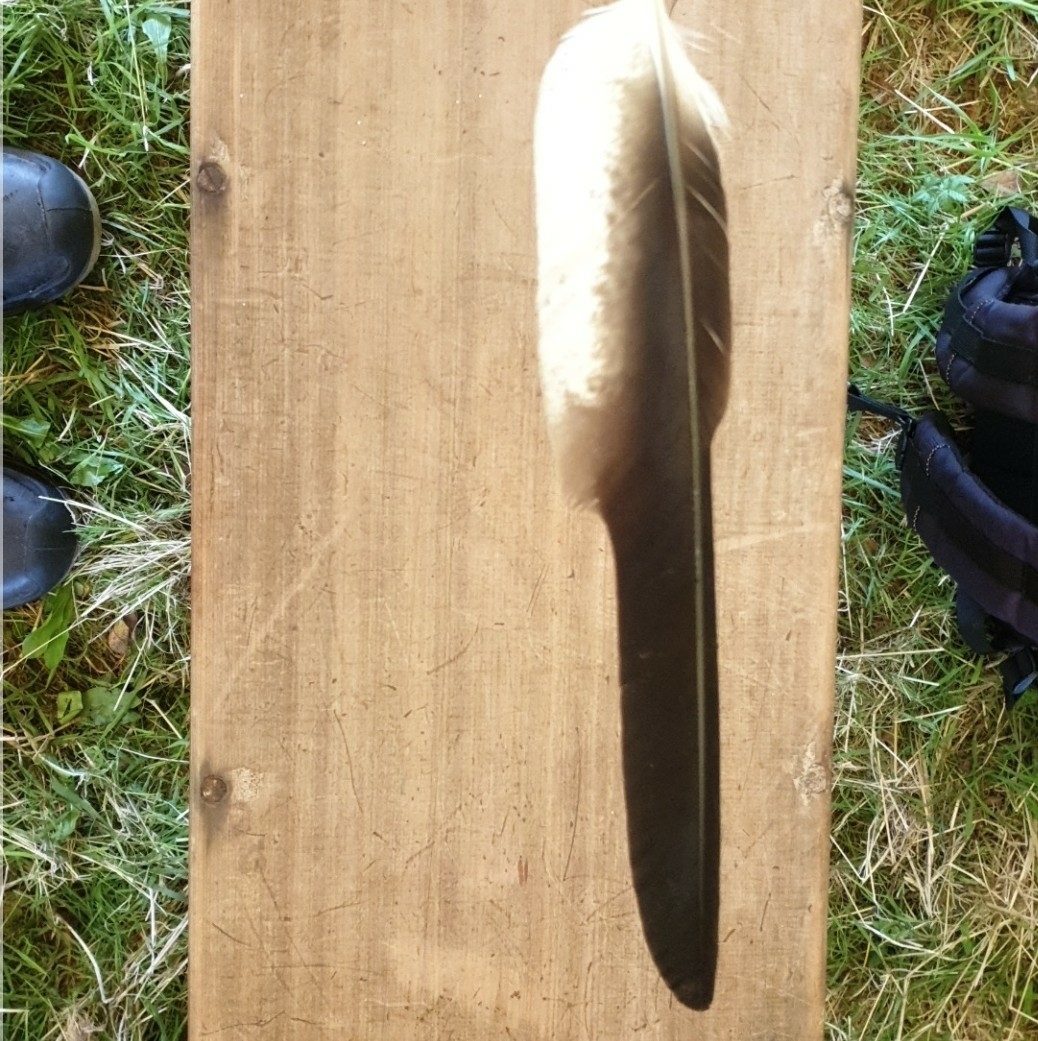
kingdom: Animalia
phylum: Chordata
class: Aves
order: Accipitriformes
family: Accipitridae
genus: Milvus
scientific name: Milvus milvus
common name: Red kite
